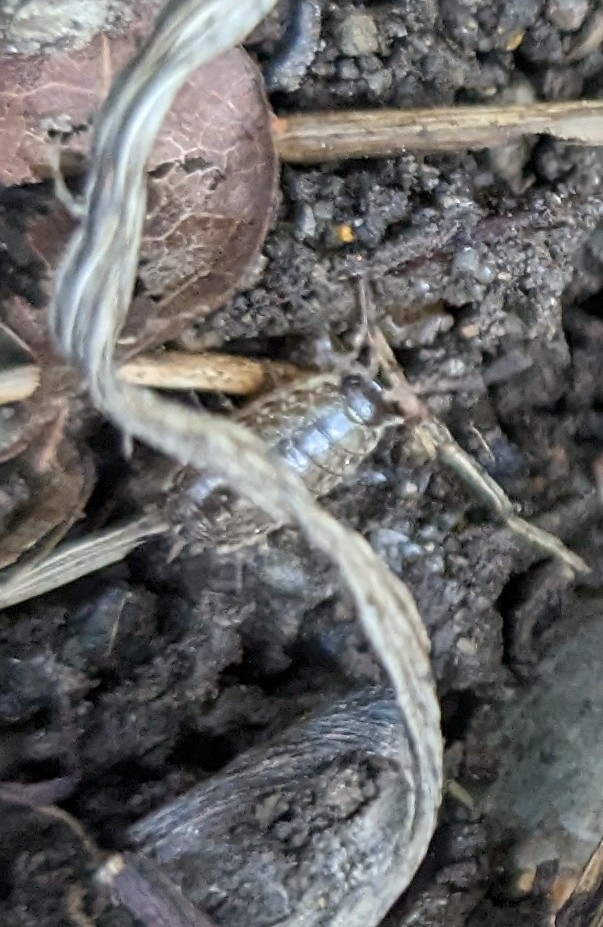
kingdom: Animalia
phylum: Arthropoda
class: Malacostraca
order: Isopoda
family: Philosciidae
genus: Philoscia
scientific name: Philoscia muscorum
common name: Common striped woodlouse
